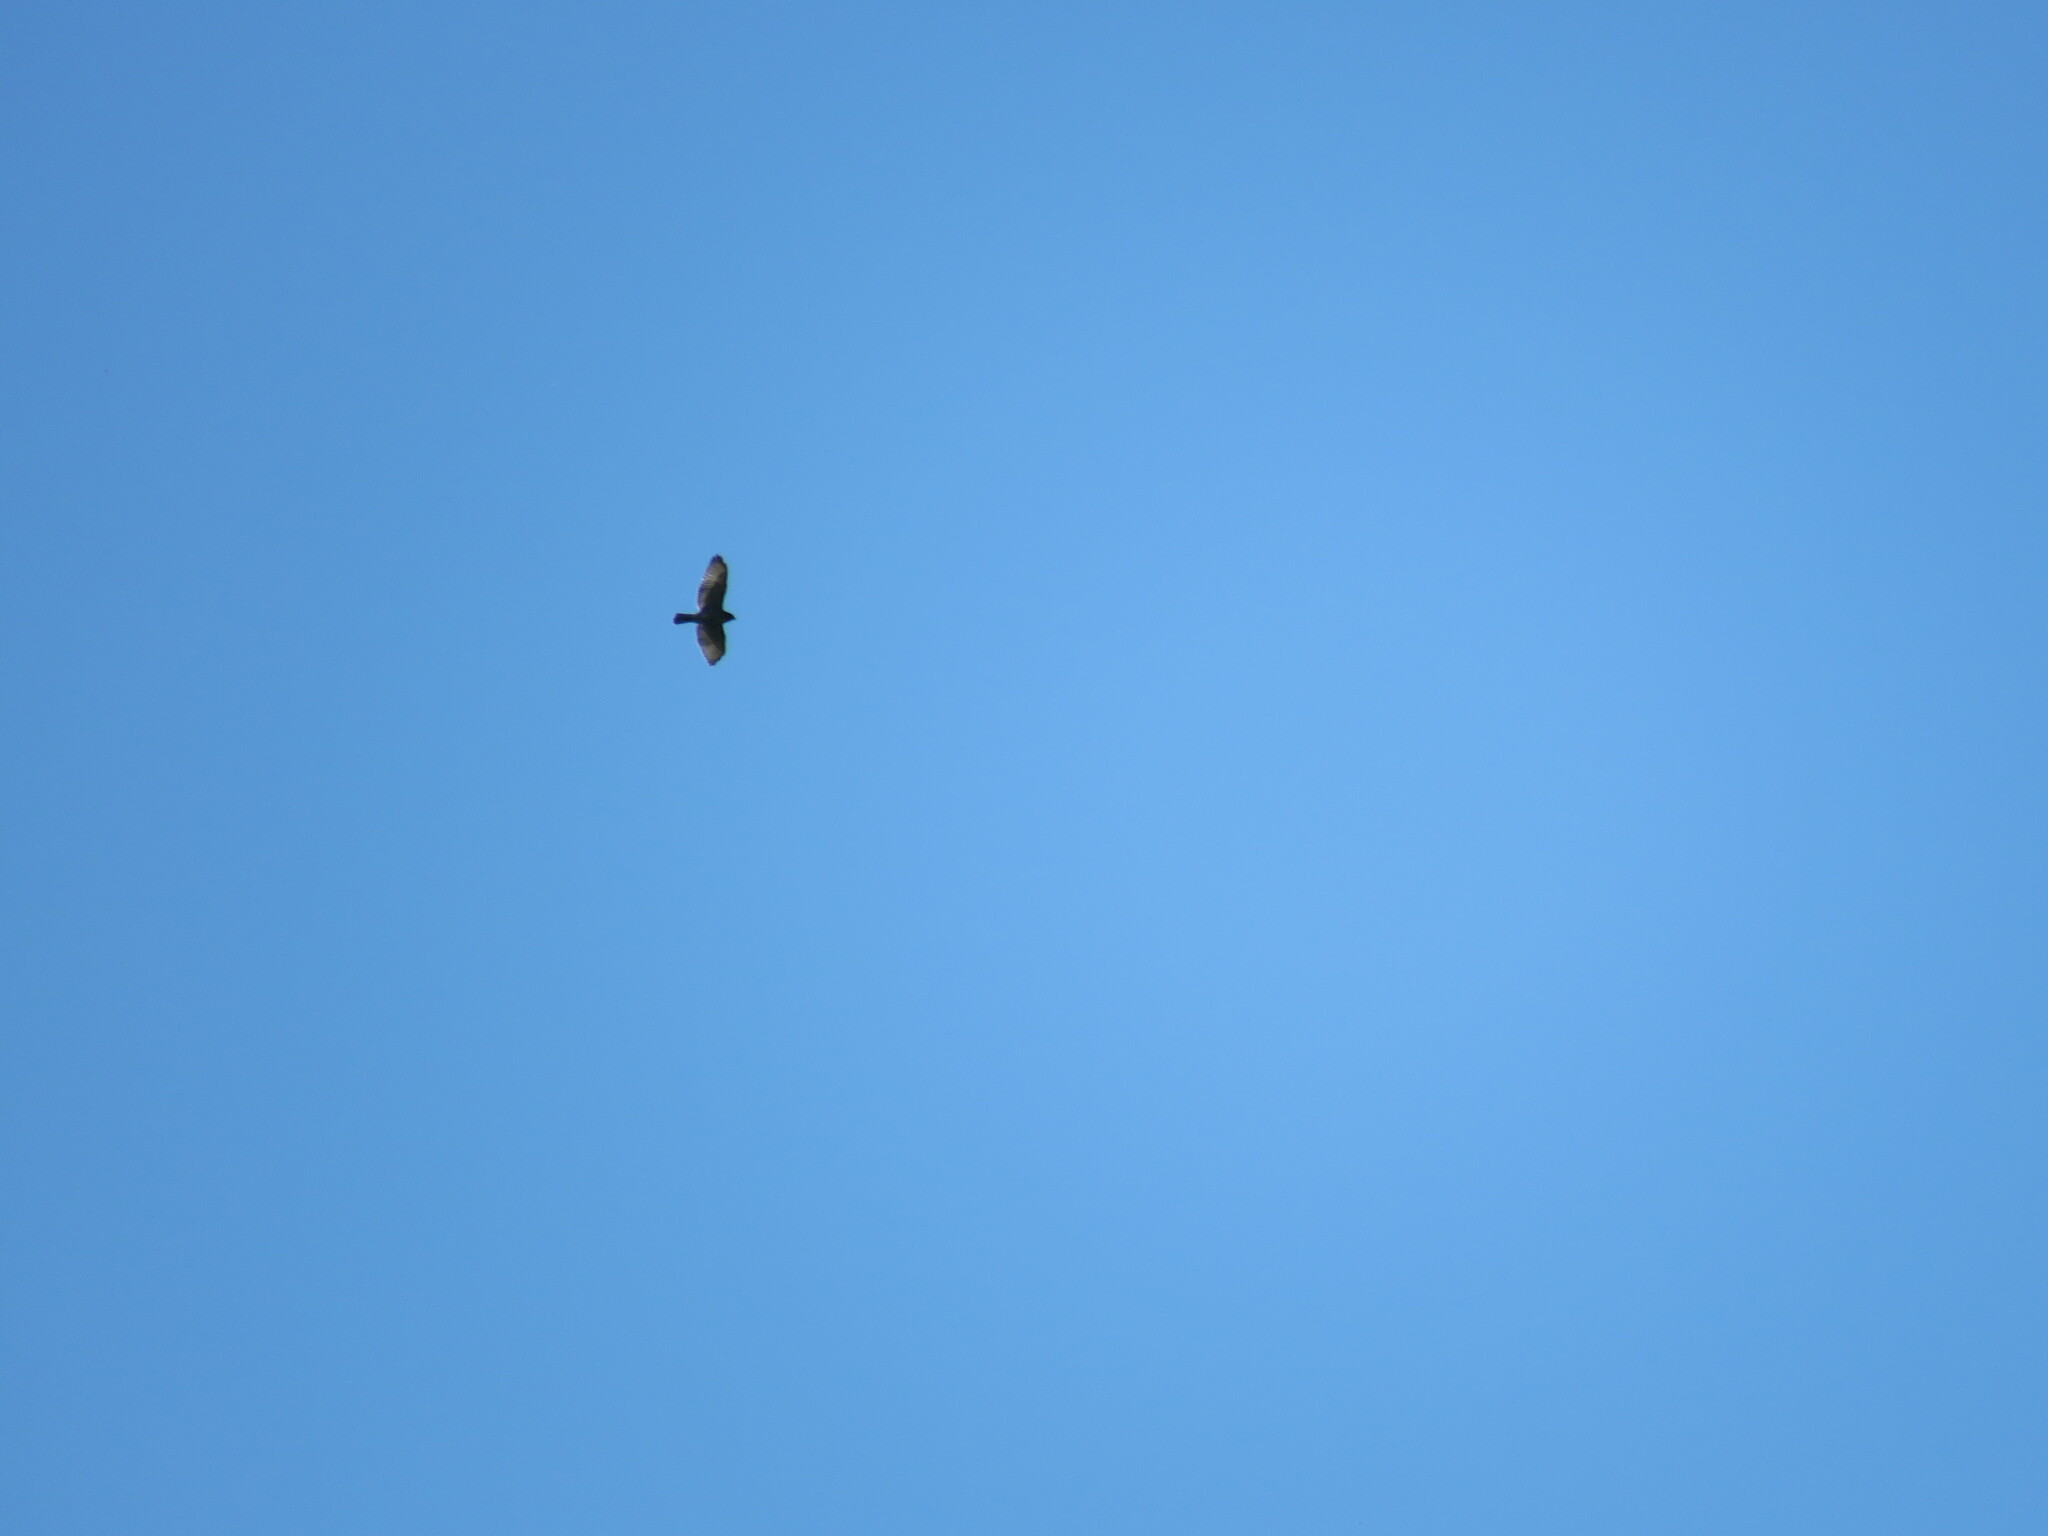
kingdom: Animalia
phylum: Chordata
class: Aves
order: Accipitriformes
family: Accipitridae
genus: Buteo
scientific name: Buteo platypterus
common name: Broad-winged hawk
